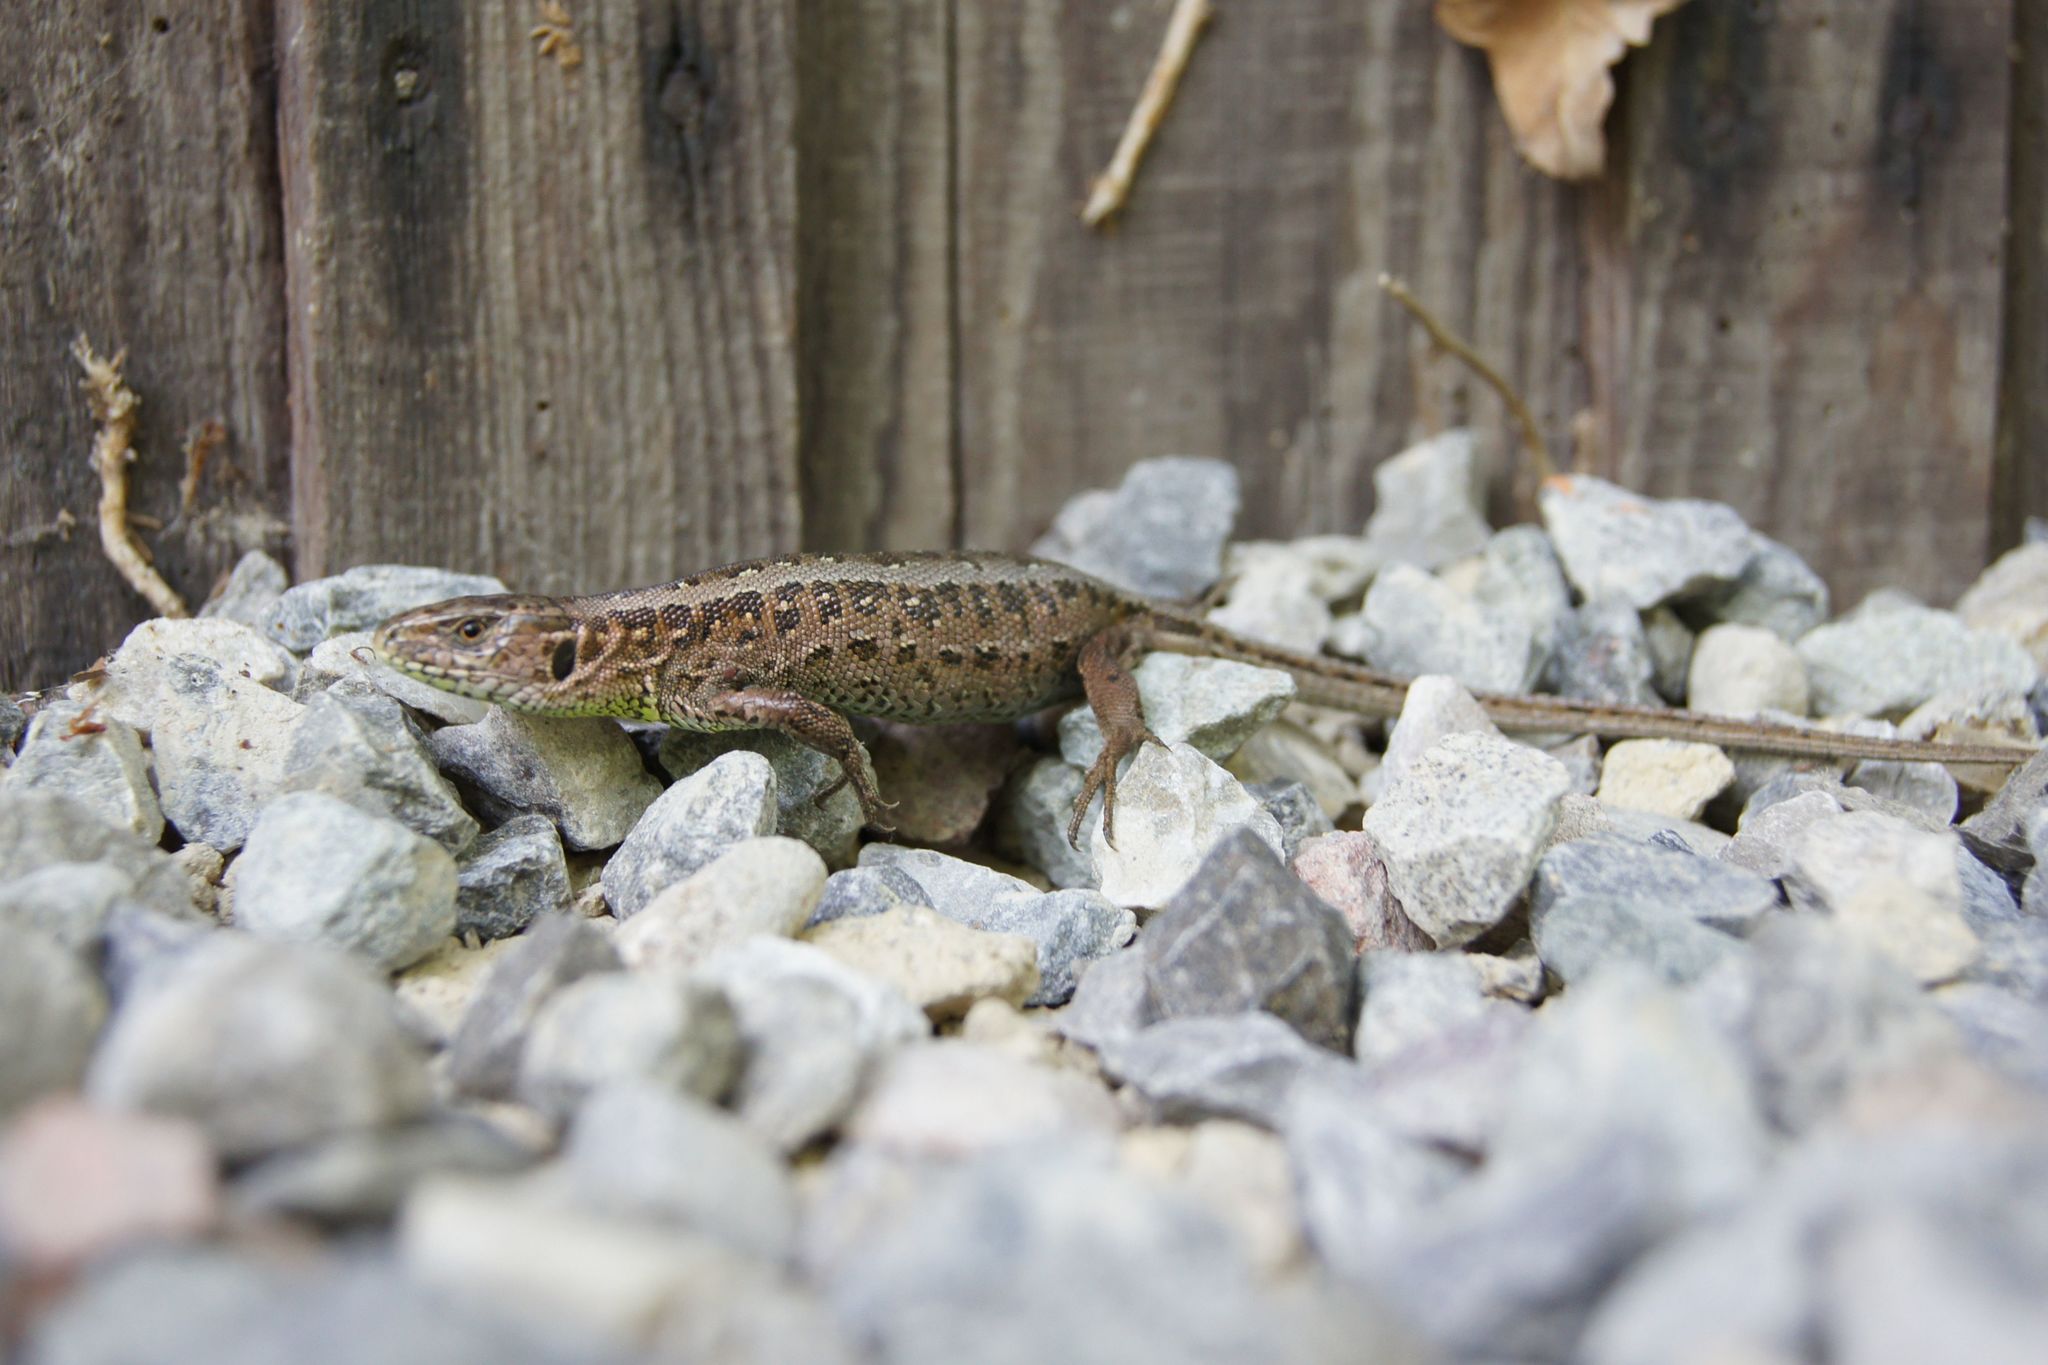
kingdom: Animalia
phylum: Chordata
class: Squamata
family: Lacertidae
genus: Lacerta
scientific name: Lacerta agilis
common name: Sand lizard
